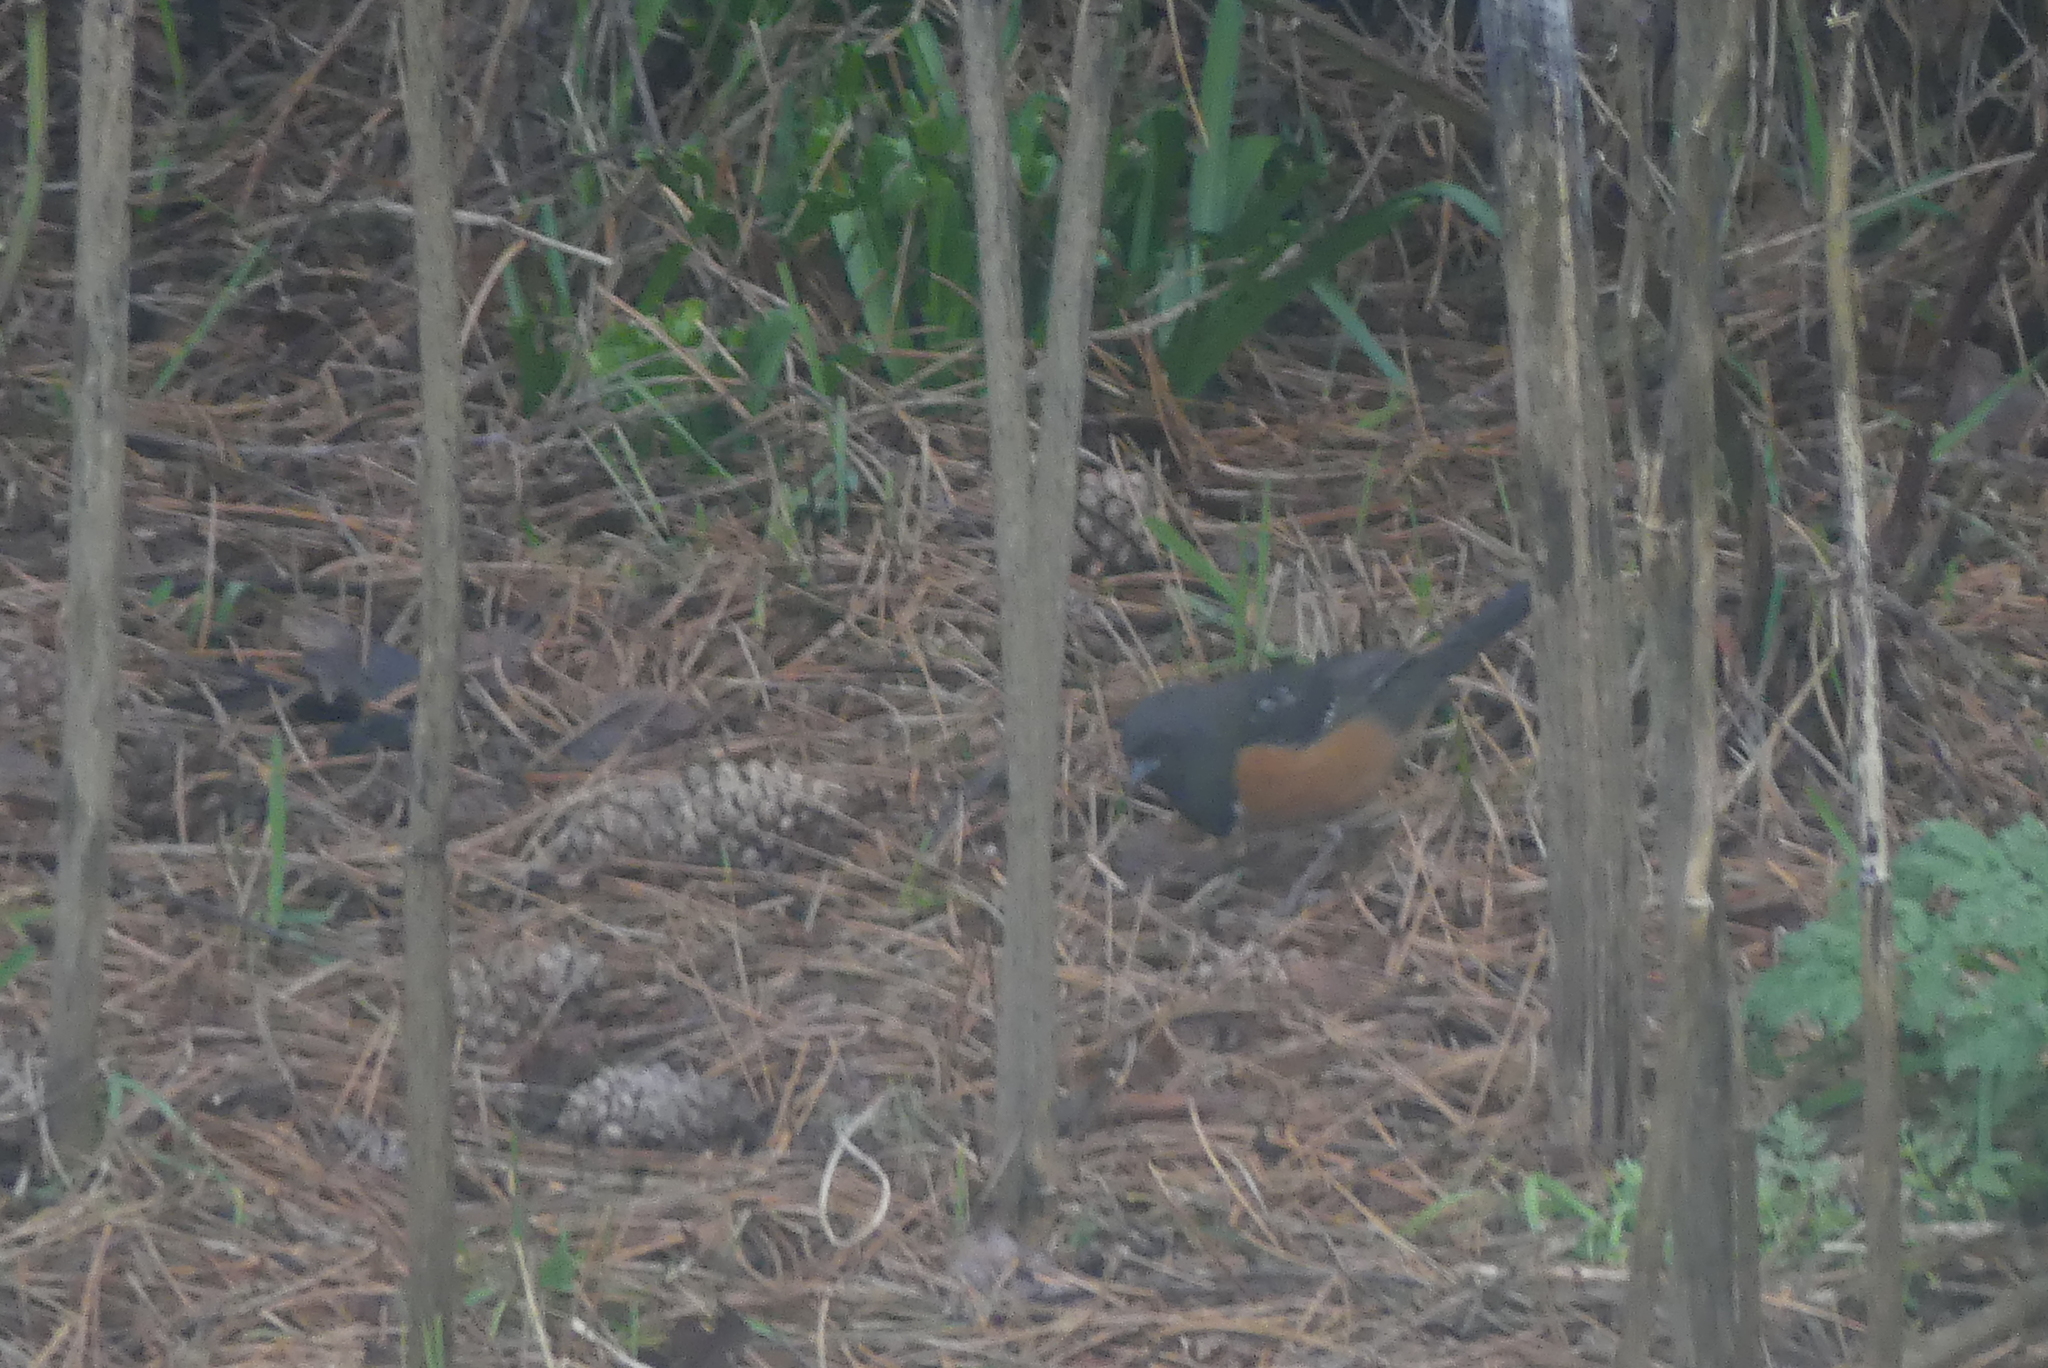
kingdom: Animalia
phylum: Chordata
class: Aves
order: Passeriformes
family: Passerellidae
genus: Pipilo
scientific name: Pipilo maculatus
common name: Spotted towhee
